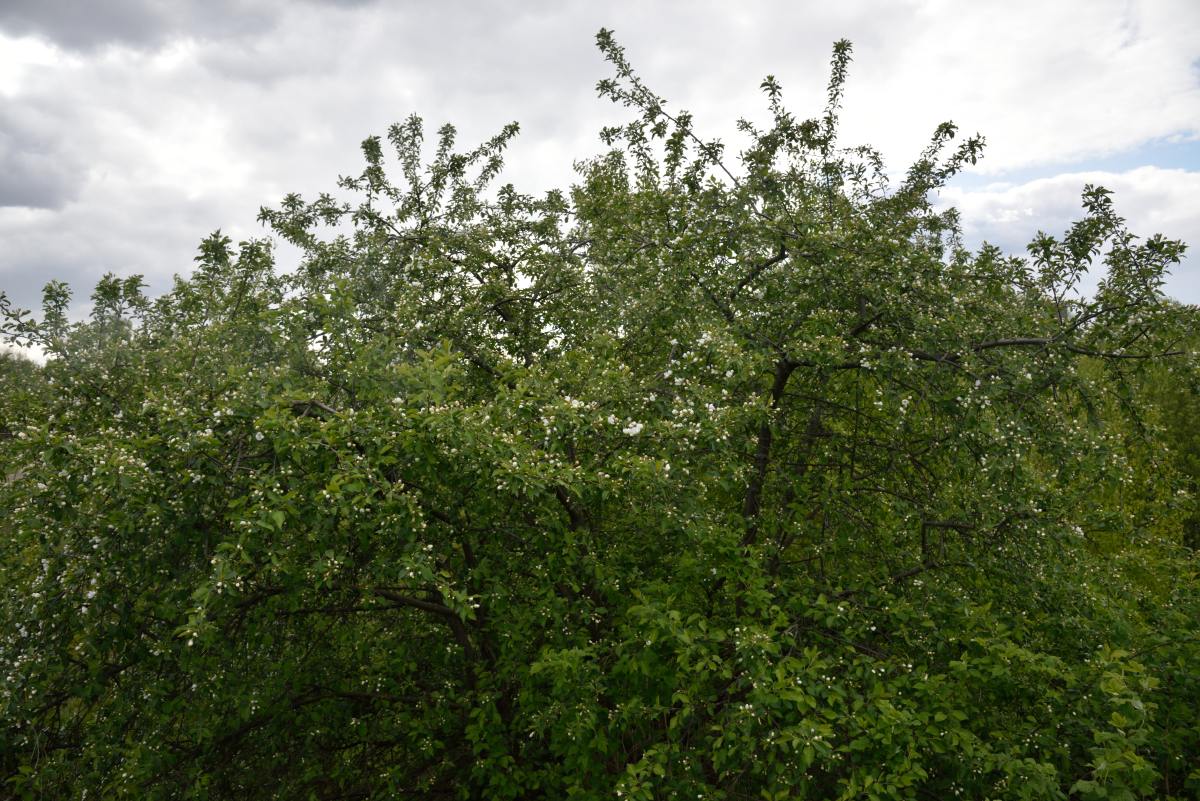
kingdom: Plantae
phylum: Tracheophyta
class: Magnoliopsida
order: Rosales
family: Rosaceae
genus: Malus
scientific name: Malus domestica
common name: Apple
